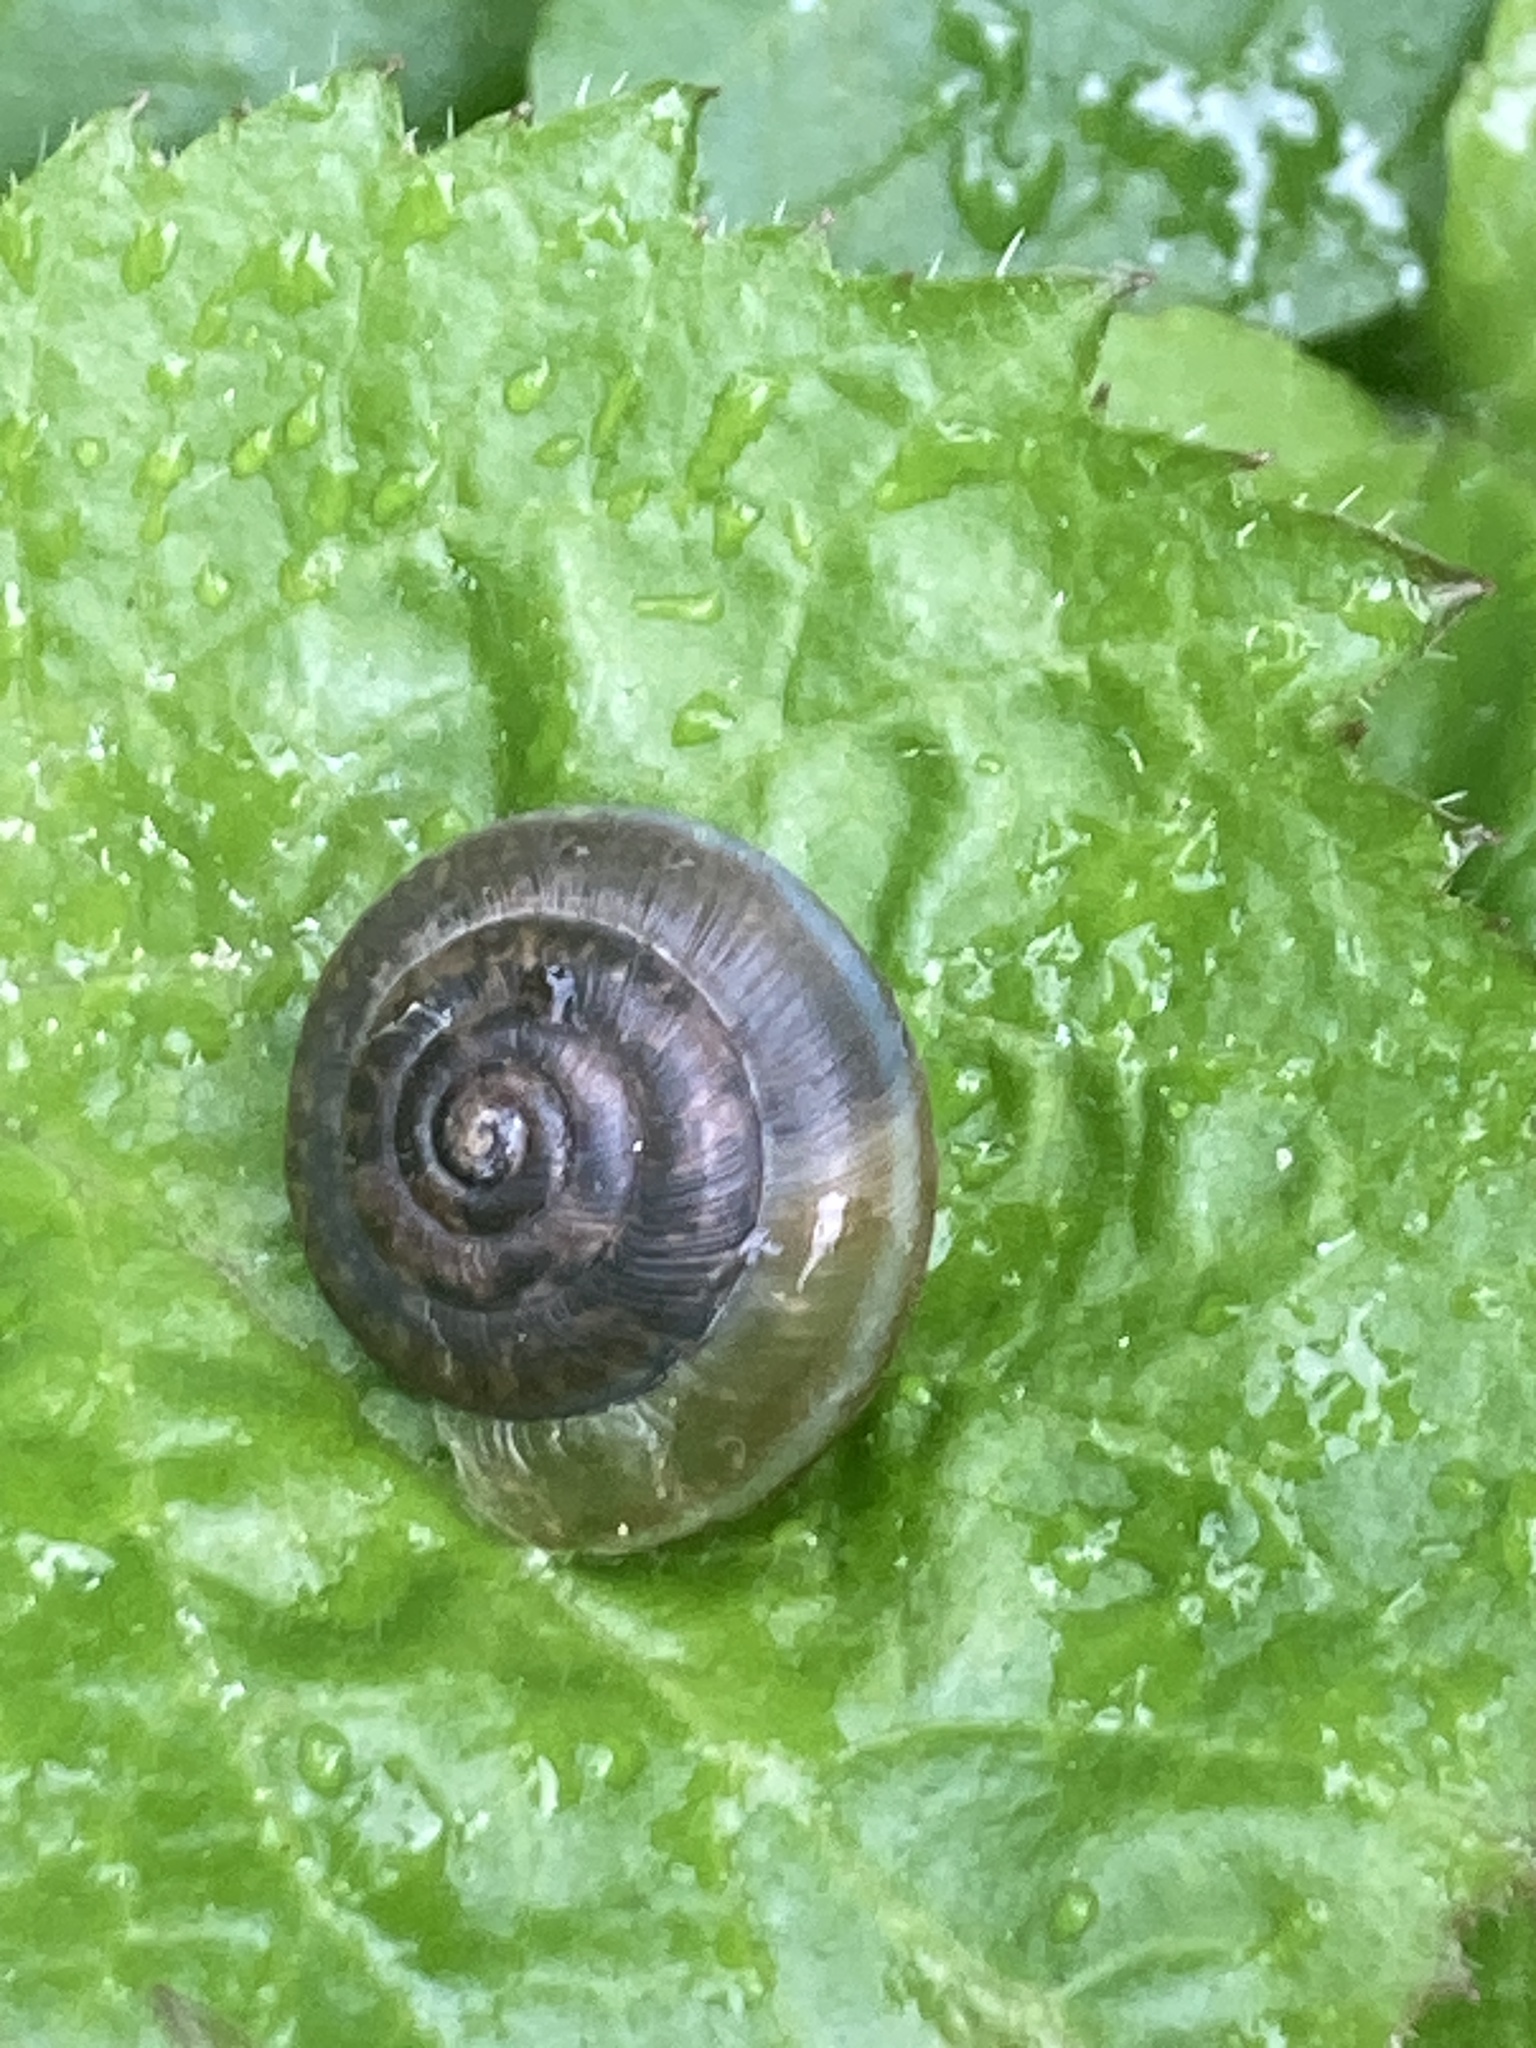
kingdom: Animalia
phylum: Mollusca
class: Gastropoda
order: Stylommatophora
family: Hygromiidae
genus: Trochulus
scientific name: Trochulus striolatus
